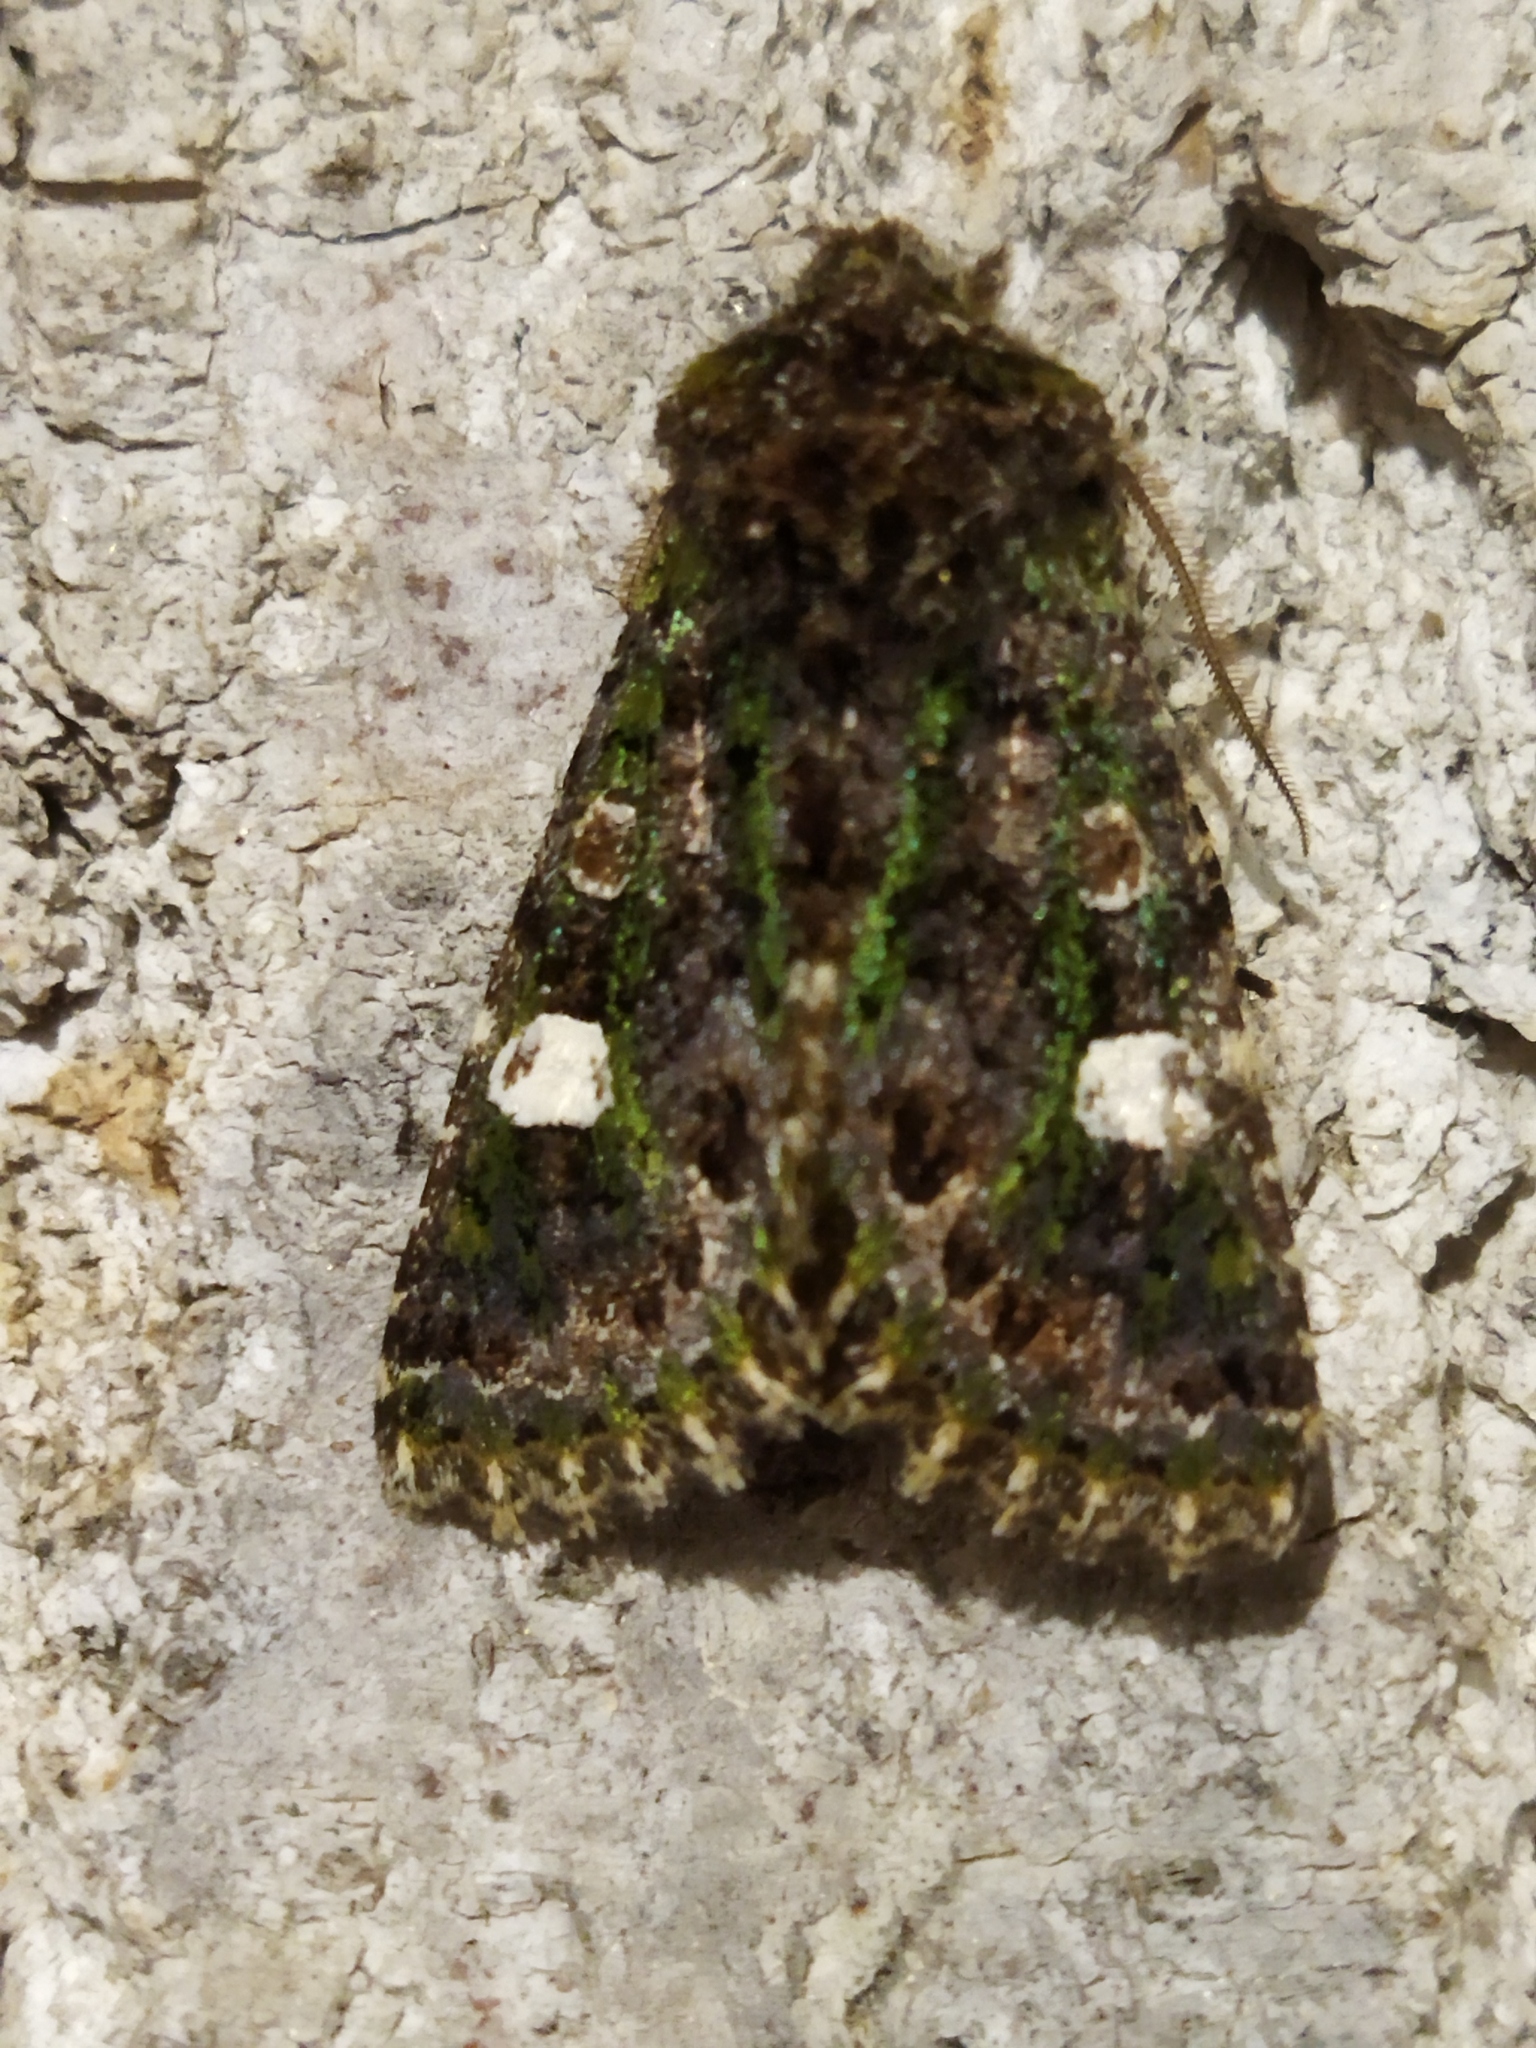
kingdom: Animalia
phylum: Arthropoda
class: Insecta
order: Lepidoptera
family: Noctuidae
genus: Valeria
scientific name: Valeria oleagina
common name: Green-brindled dot
